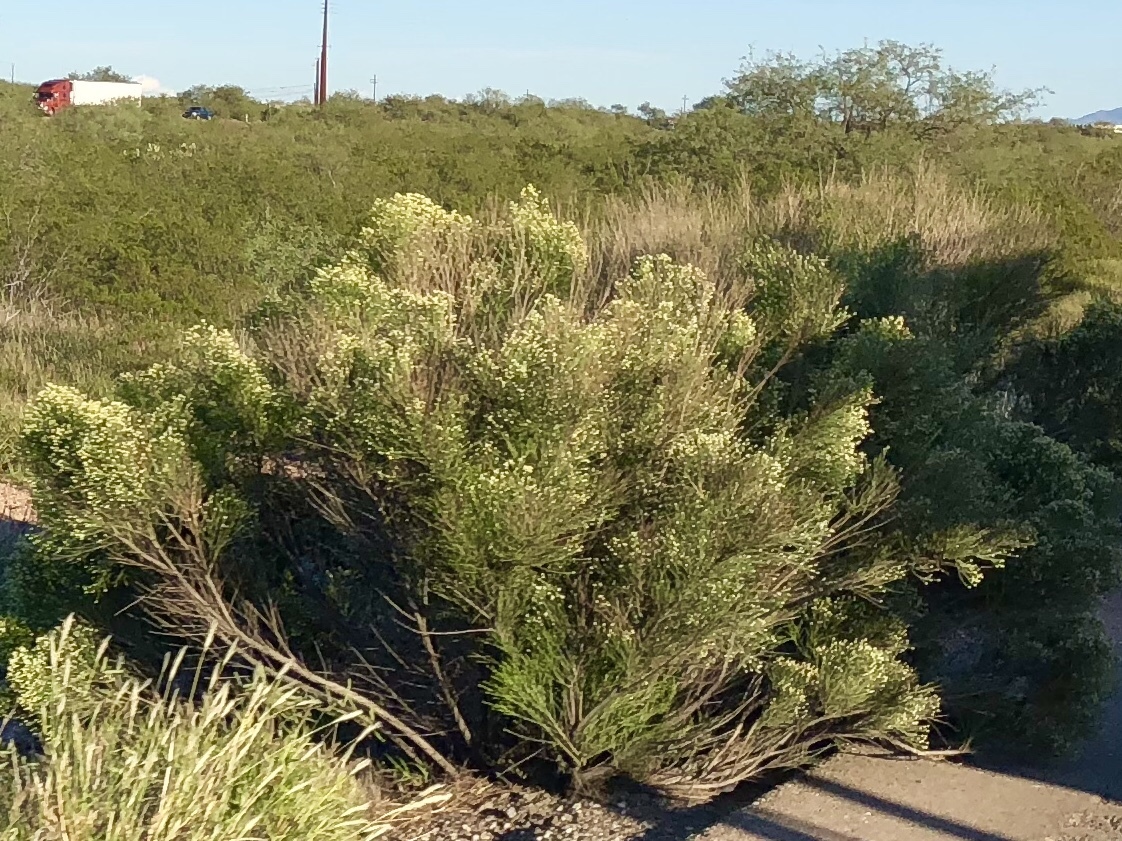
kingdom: Plantae
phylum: Tracheophyta
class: Magnoliopsida
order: Asterales
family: Asteraceae
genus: Baccharis
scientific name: Baccharis sarothroides
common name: Desert-broom
